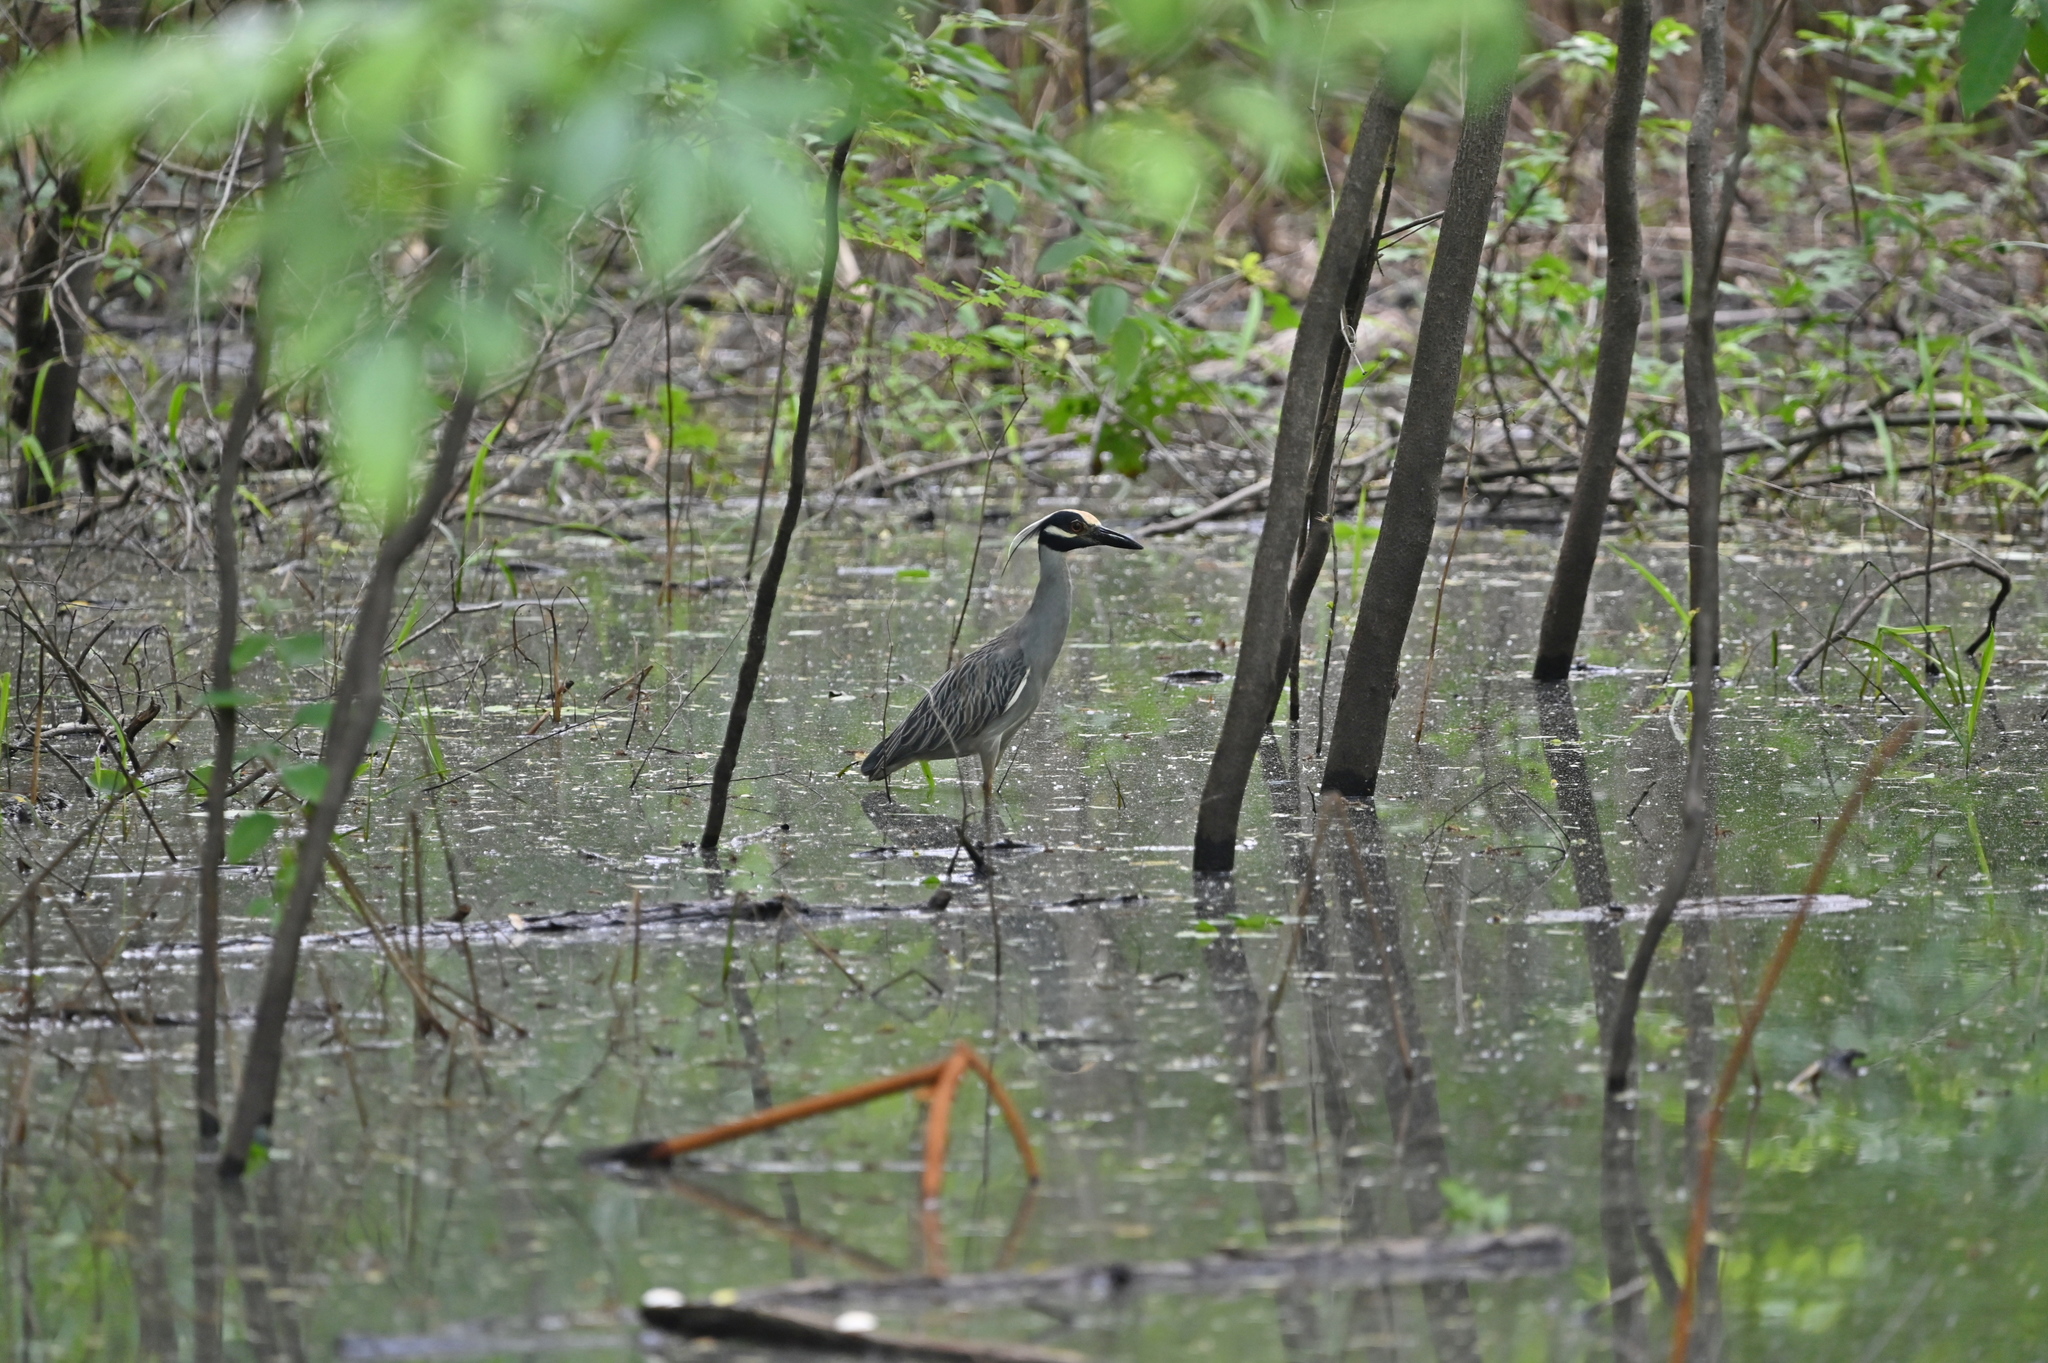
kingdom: Animalia
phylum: Chordata
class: Aves
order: Pelecaniformes
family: Ardeidae
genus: Nyctanassa
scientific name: Nyctanassa violacea
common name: Yellow-crowned night heron
